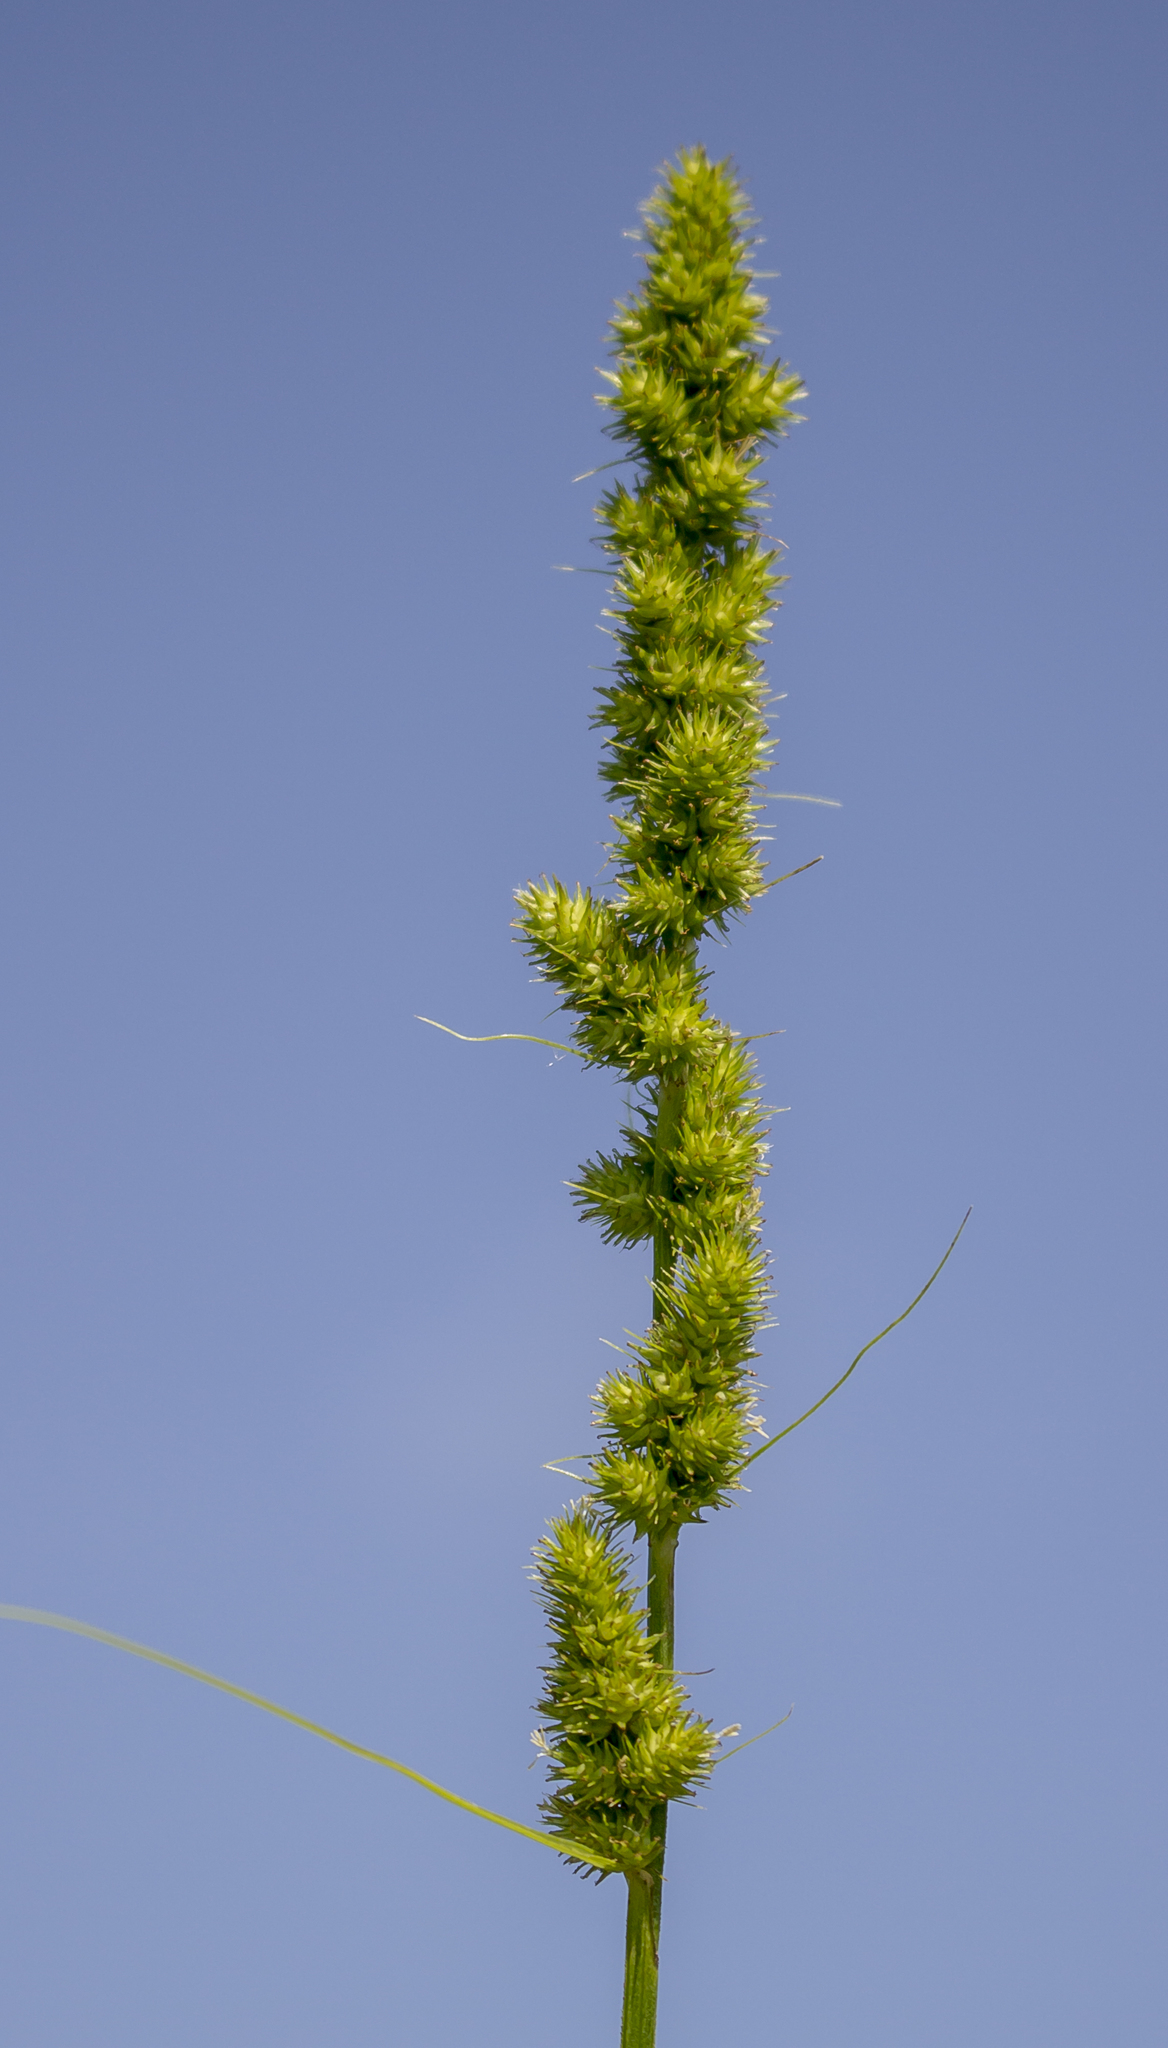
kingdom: Plantae
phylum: Tracheophyta
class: Liliopsida
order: Poales
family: Cyperaceae
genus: Carex
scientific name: Carex vulpinoidea
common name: American fox-sedge
